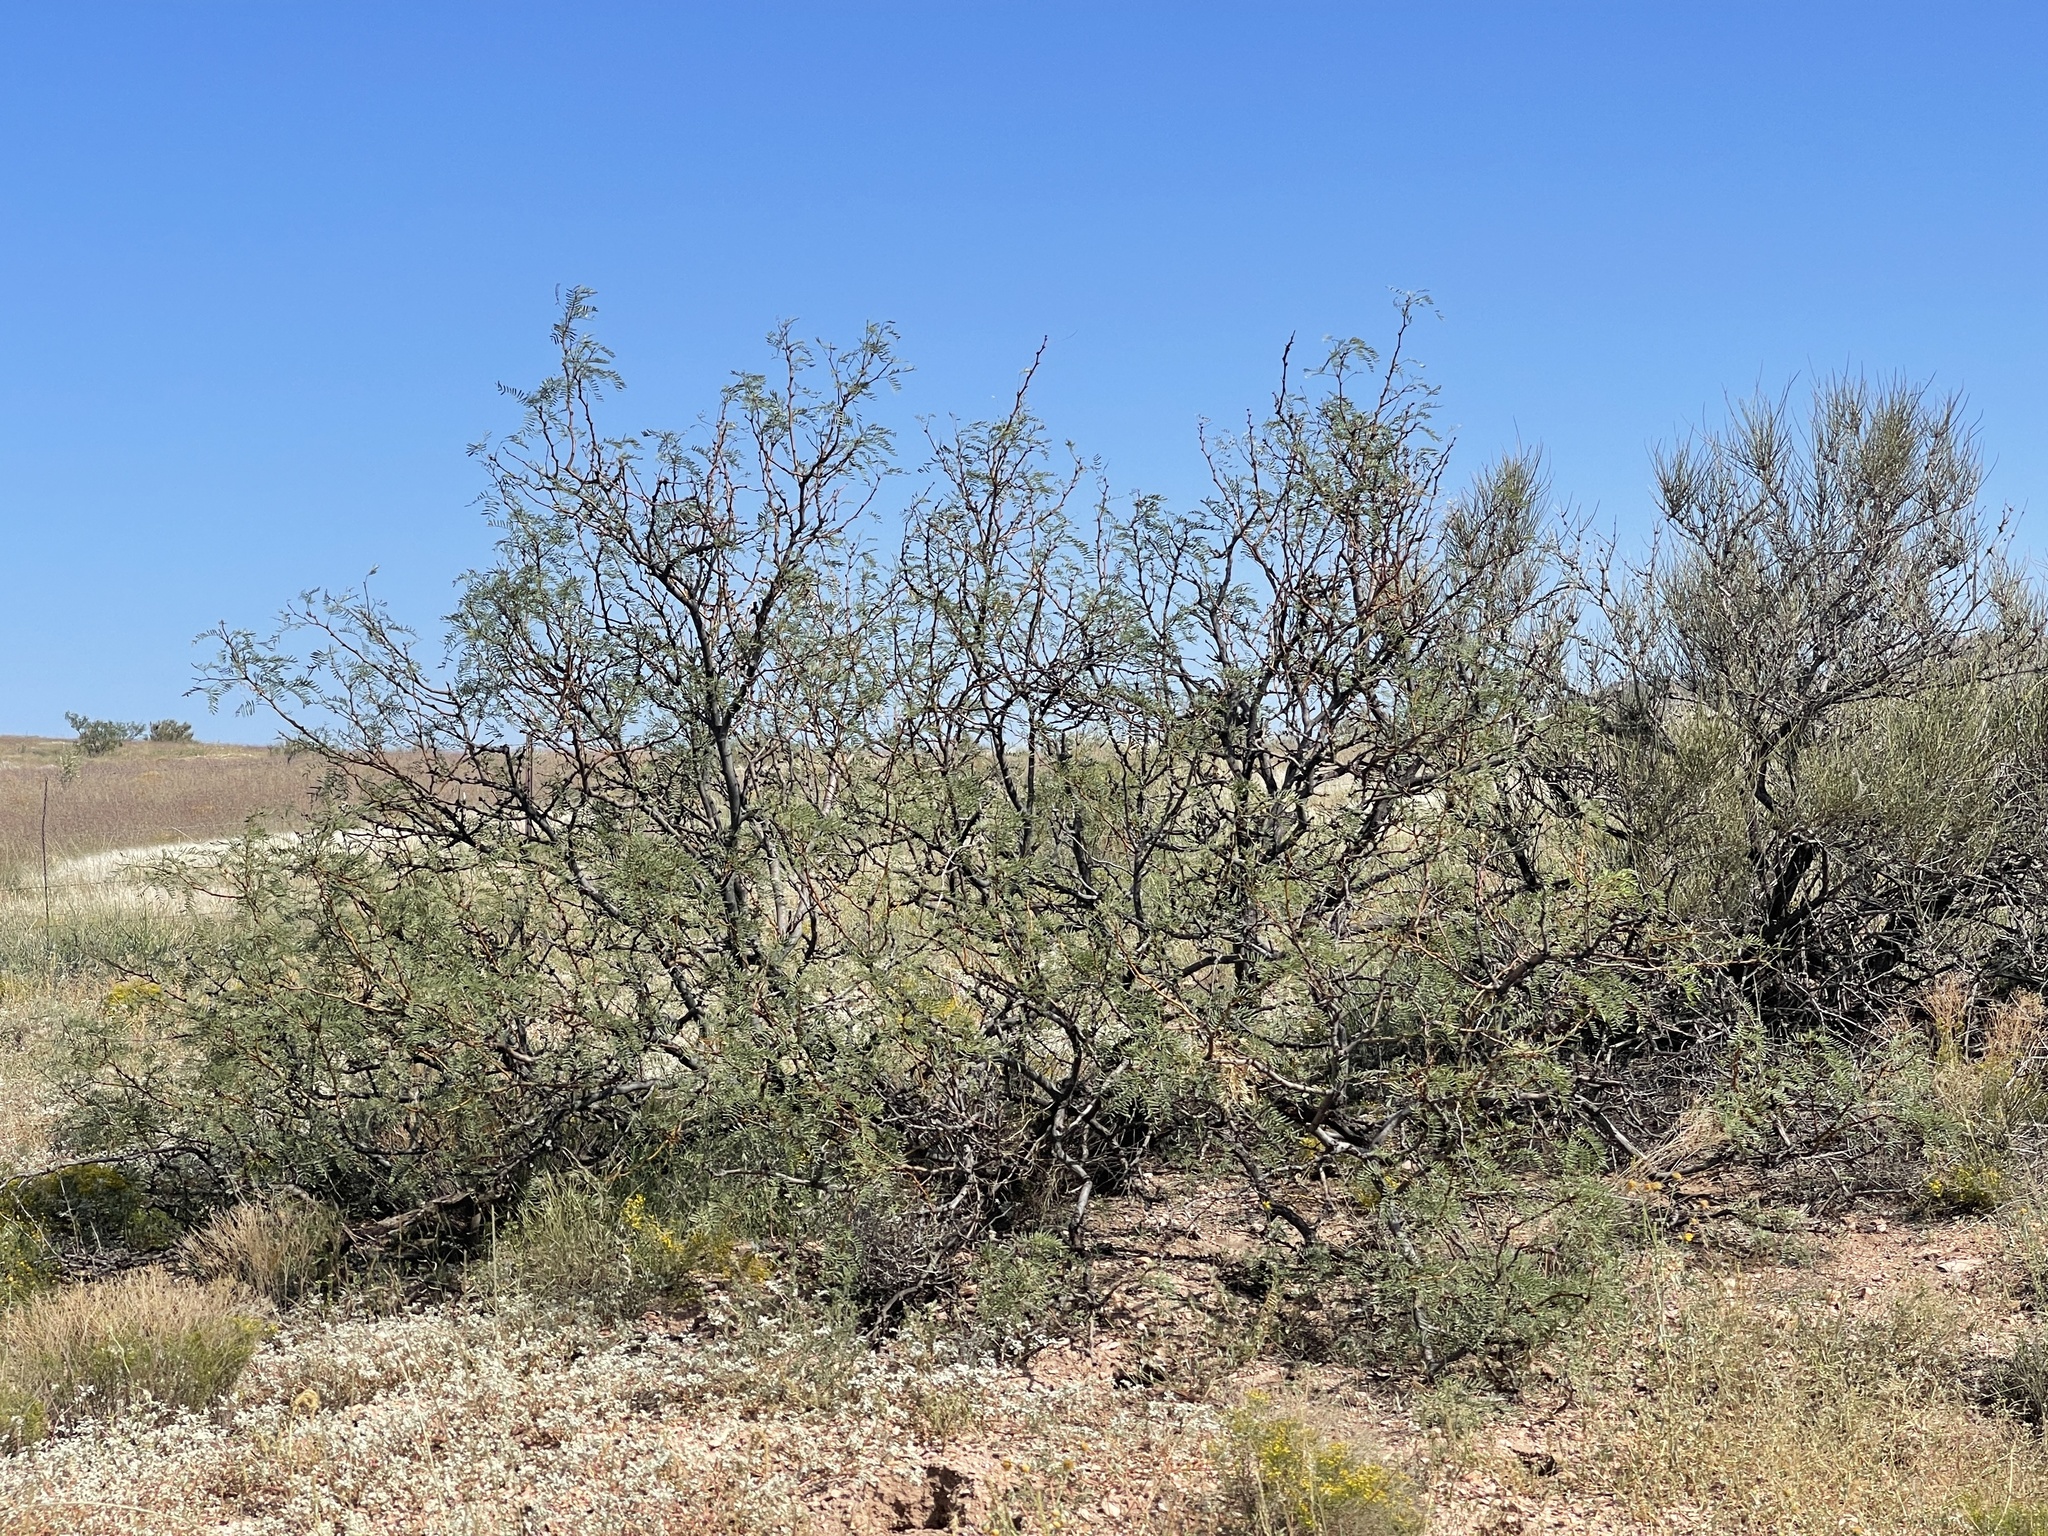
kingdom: Plantae
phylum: Tracheophyta
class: Magnoliopsida
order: Fabales
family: Fabaceae
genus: Prosopis
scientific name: Prosopis glandulosa
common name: Honey mesquite
